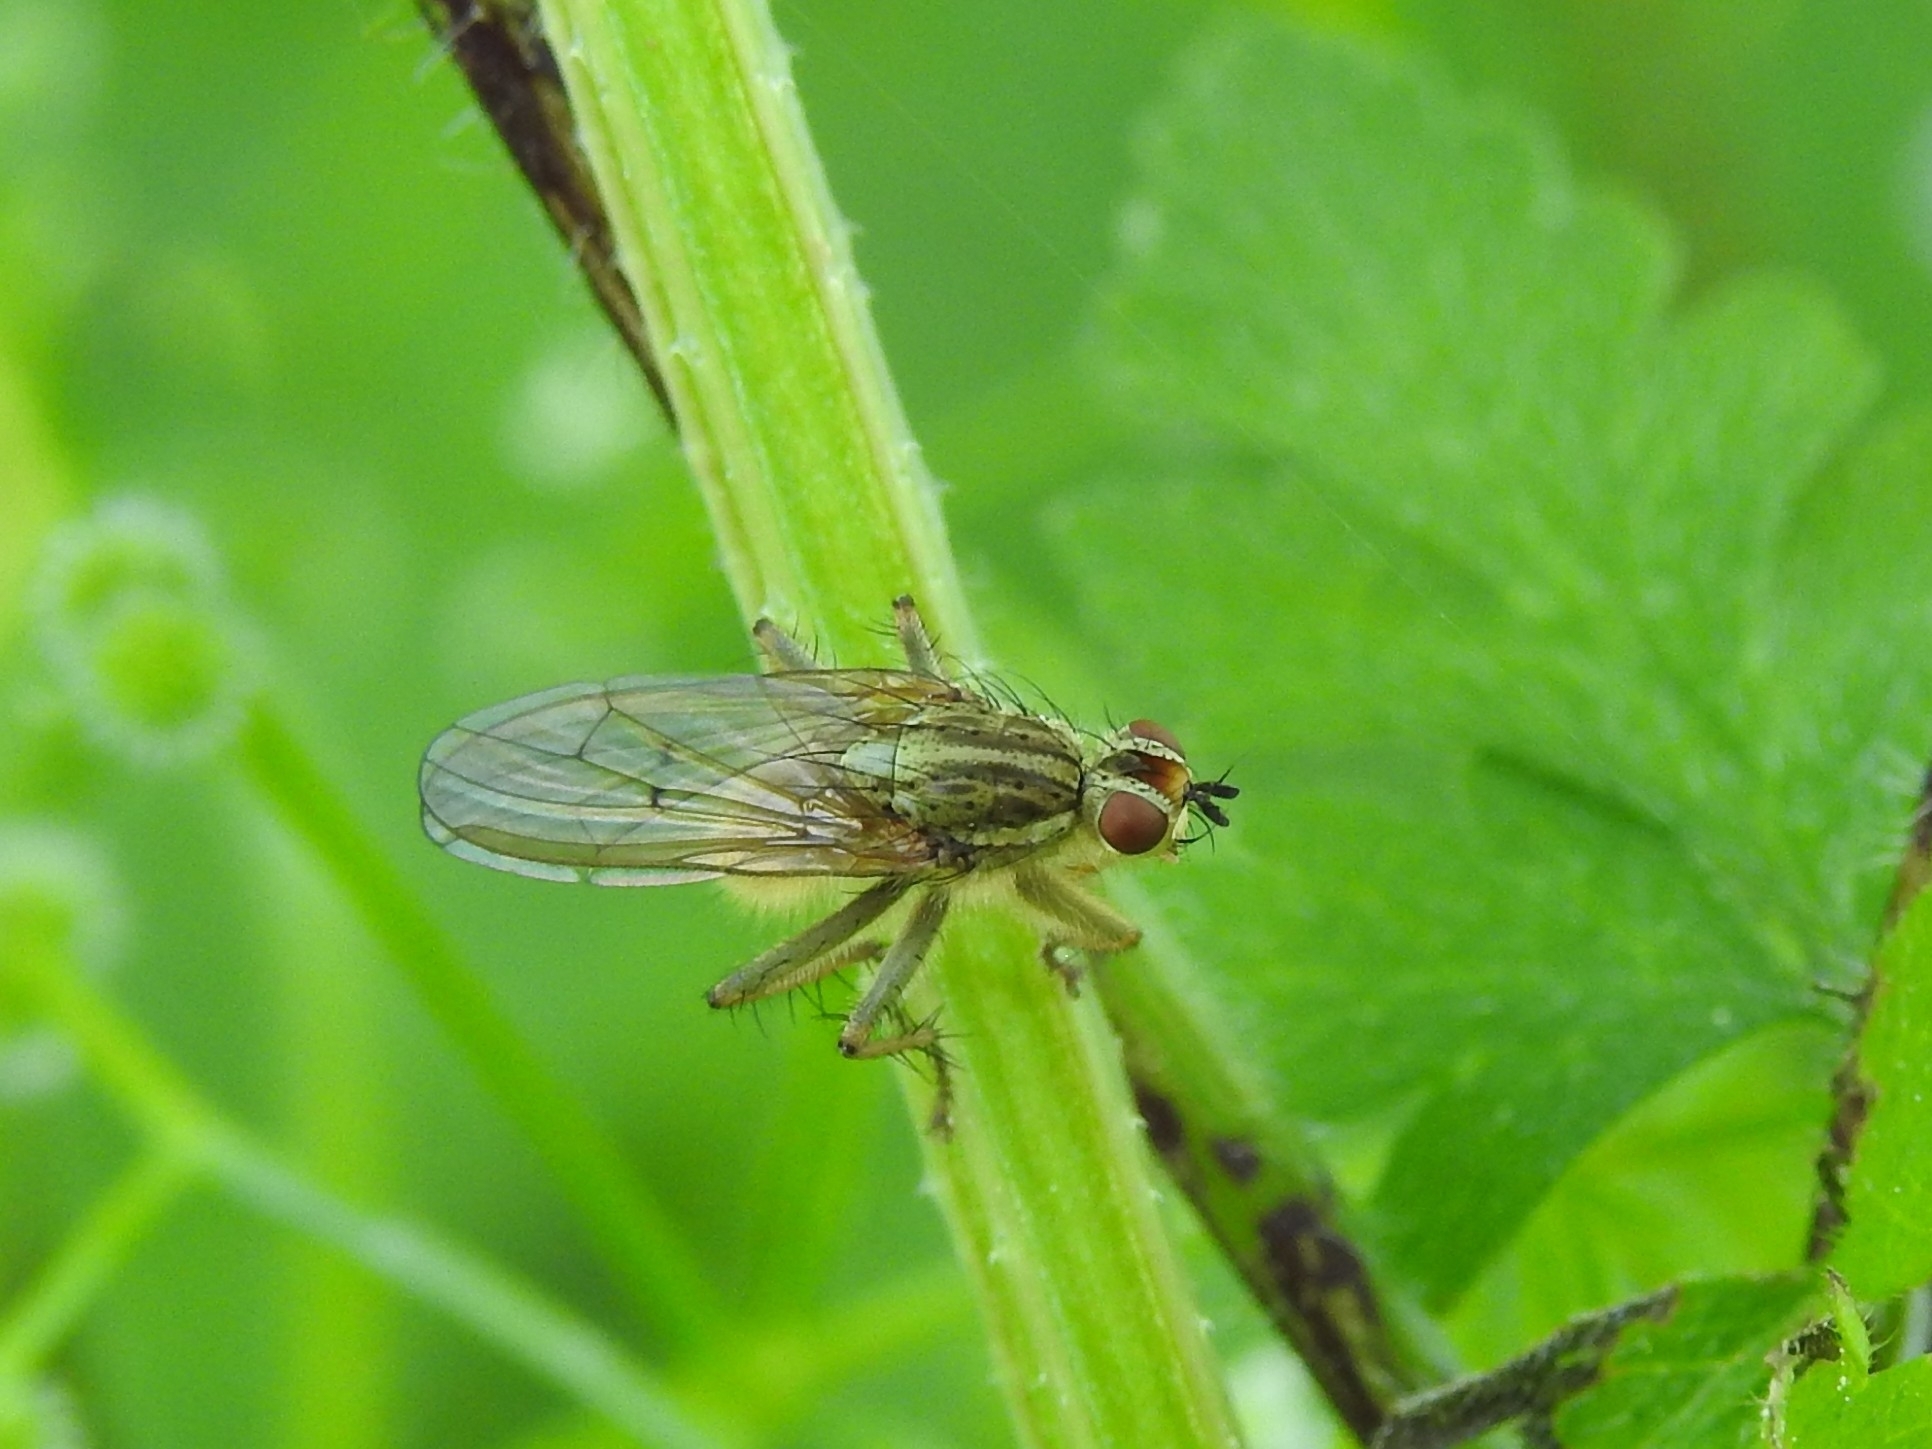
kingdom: Animalia
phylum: Arthropoda
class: Insecta
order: Diptera
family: Scathophagidae
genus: Scathophaga
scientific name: Scathophaga stercoraria
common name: Yellow dung fly
